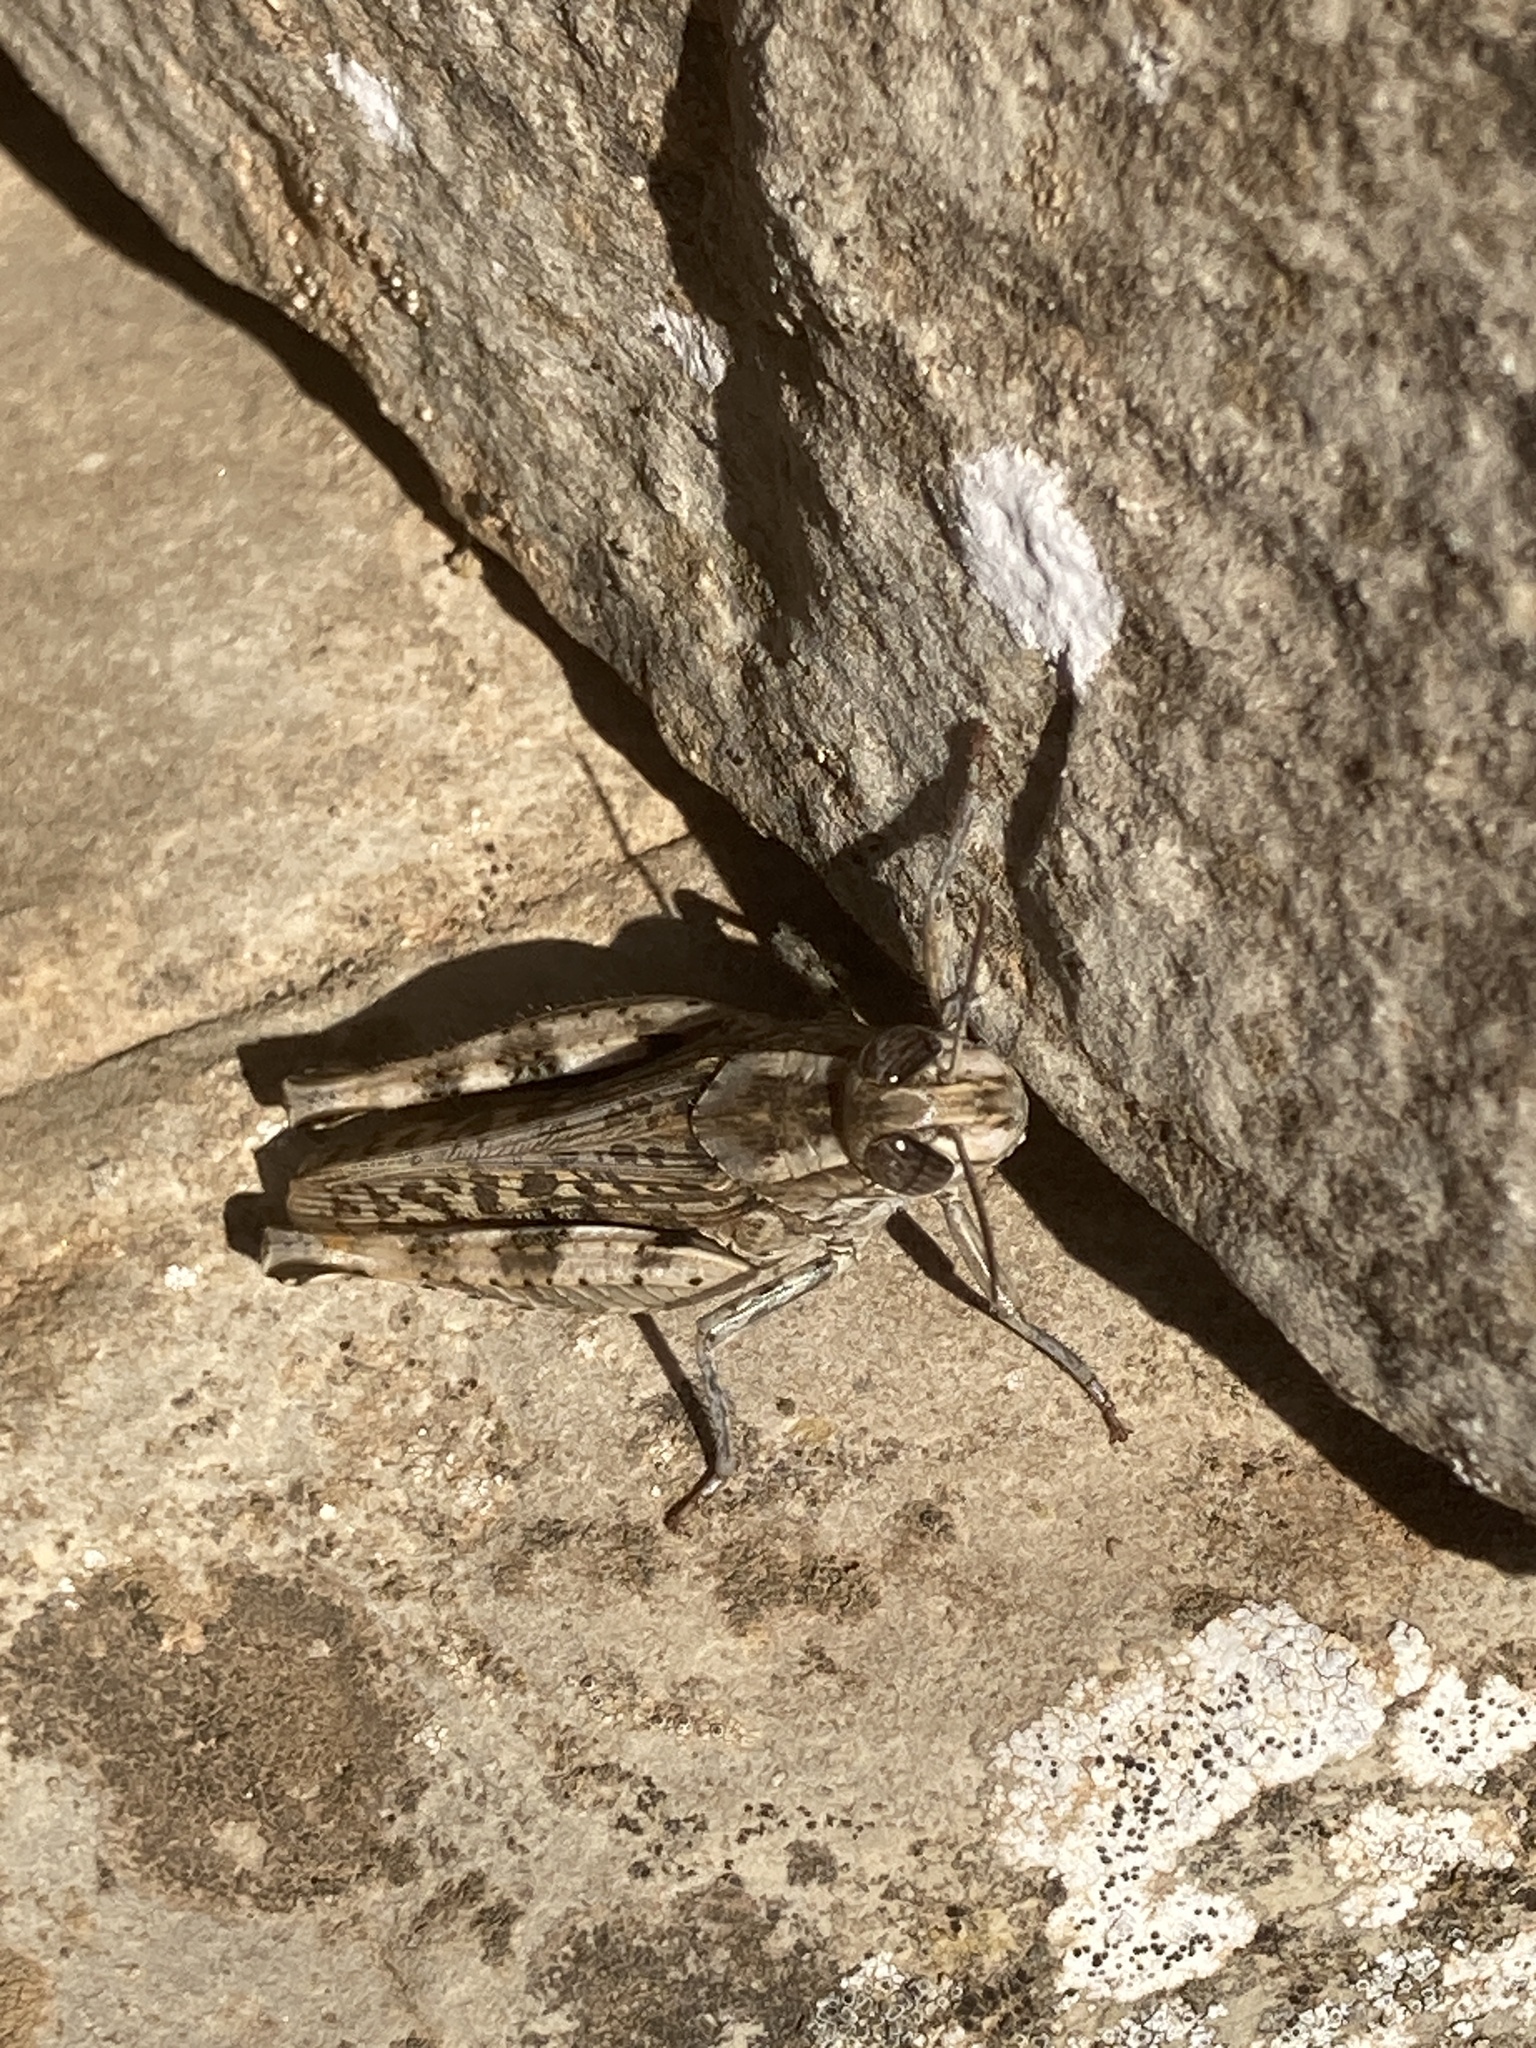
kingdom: Animalia
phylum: Arthropoda
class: Insecta
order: Orthoptera
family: Acrididae
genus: Calliptamus
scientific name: Calliptamus
